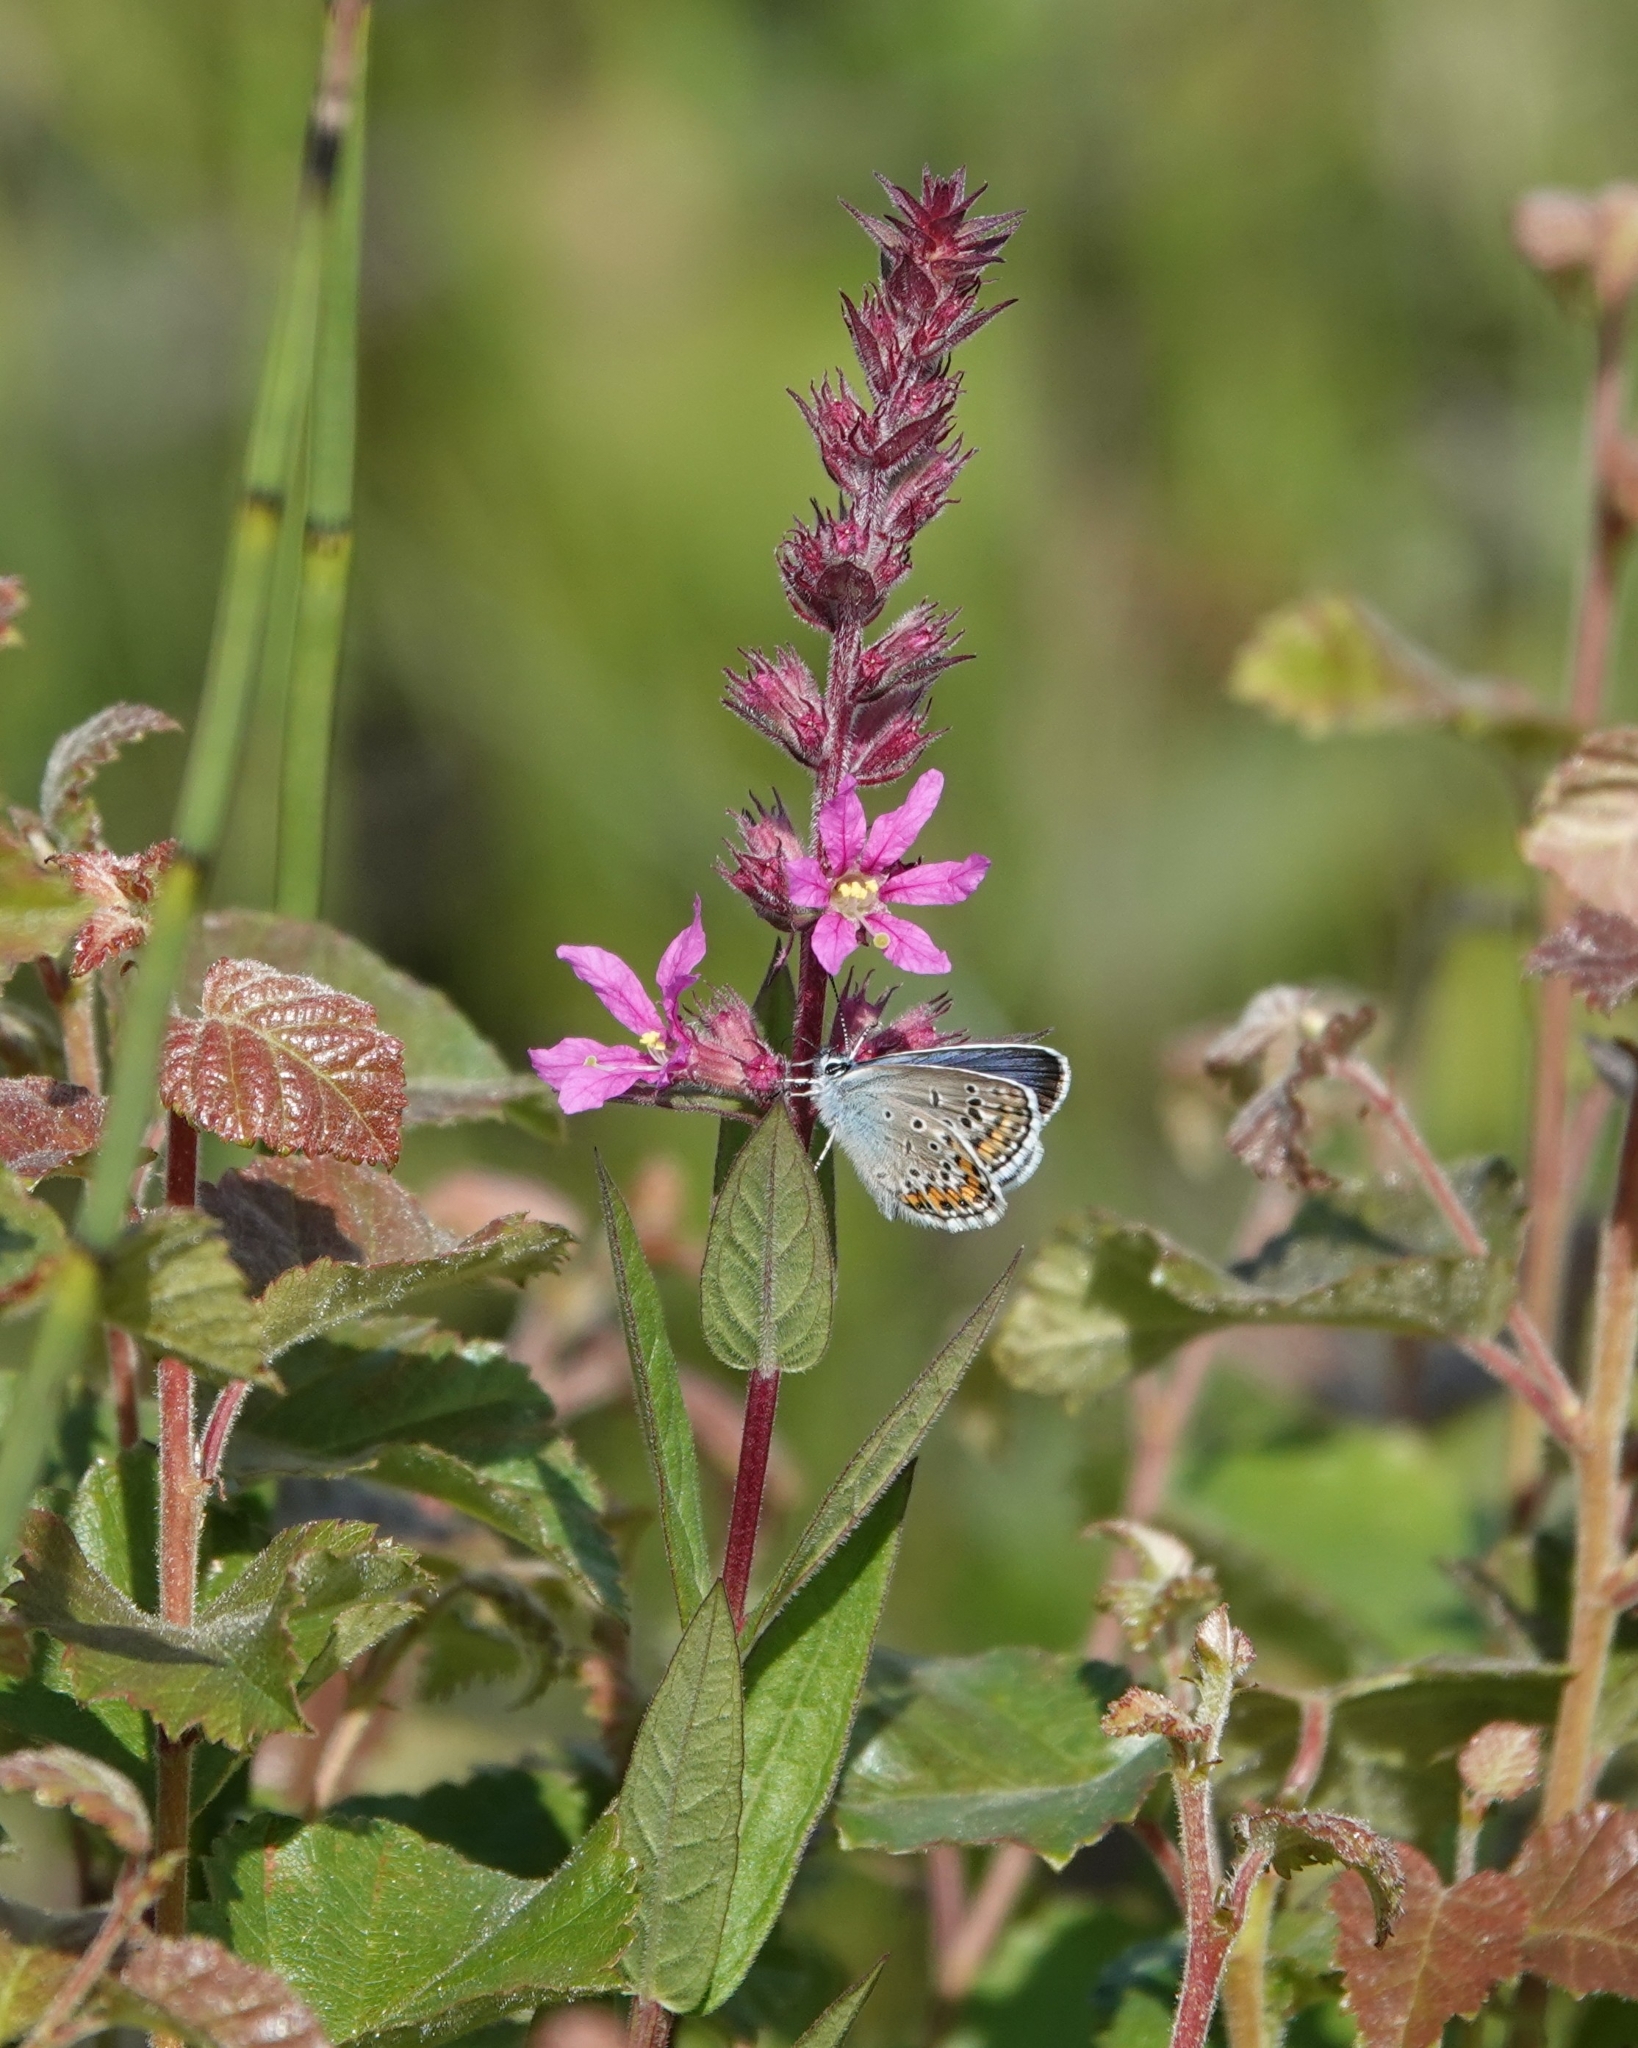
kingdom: Plantae
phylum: Tracheophyta
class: Magnoliopsida
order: Myrtales
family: Lythraceae
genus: Lythrum
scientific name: Lythrum salicaria
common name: Purple loosestrife
